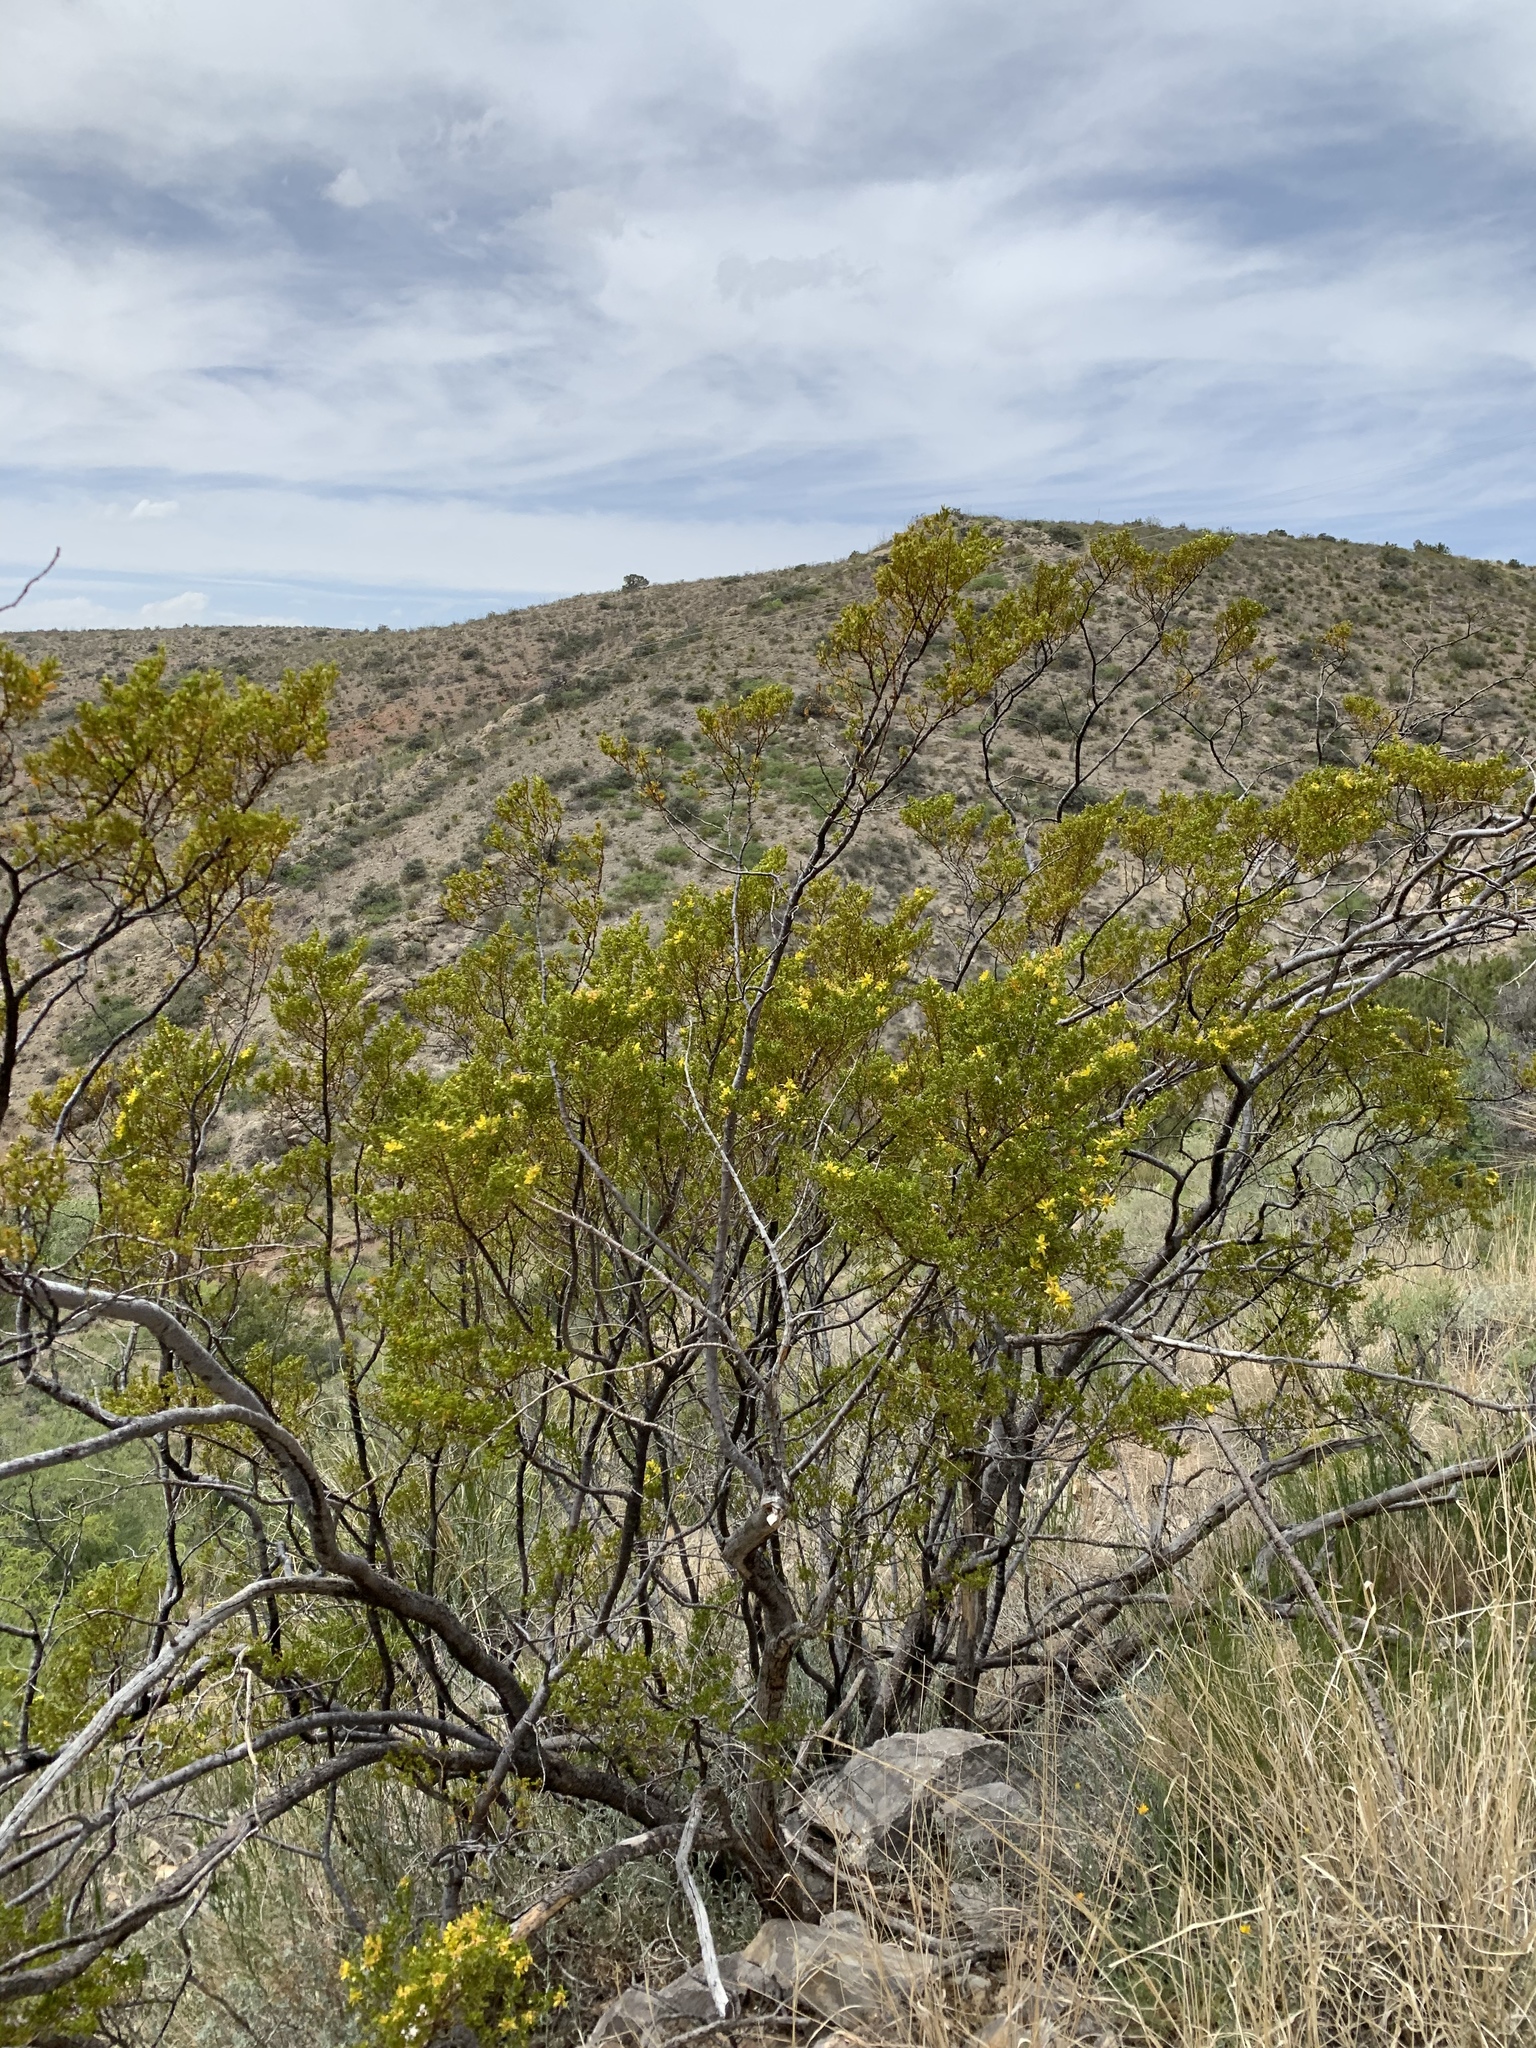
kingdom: Plantae
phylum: Tracheophyta
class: Magnoliopsida
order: Zygophyllales
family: Zygophyllaceae
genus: Larrea
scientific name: Larrea tridentata
